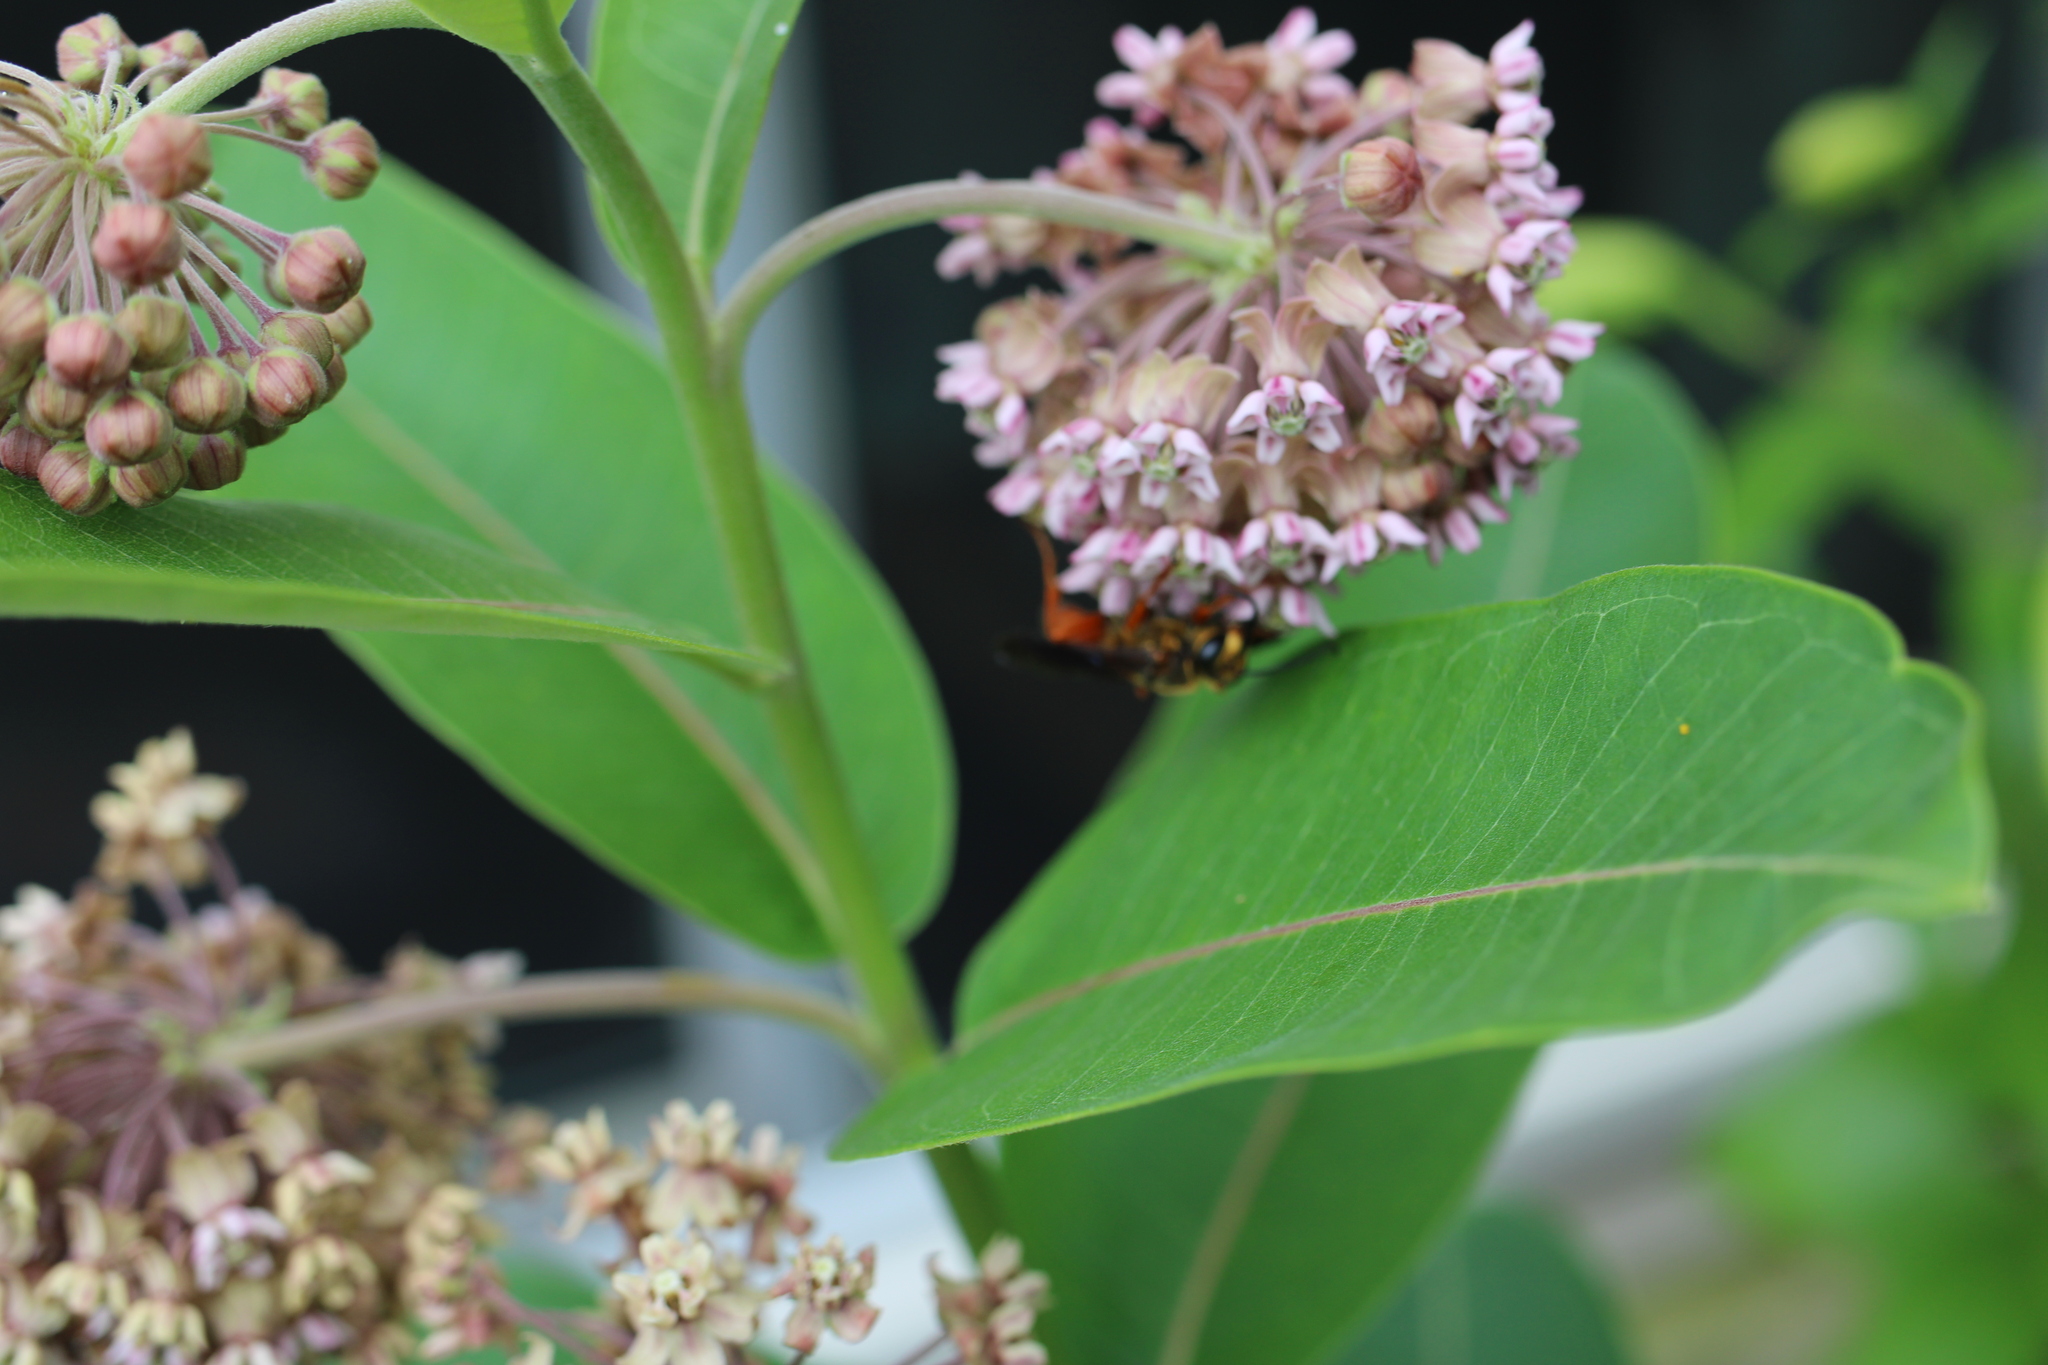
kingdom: Animalia
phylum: Arthropoda
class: Insecta
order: Hymenoptera
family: Sphecidae
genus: Sphex
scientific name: Sphex ichneumoneus
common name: Great golden digger wasp
